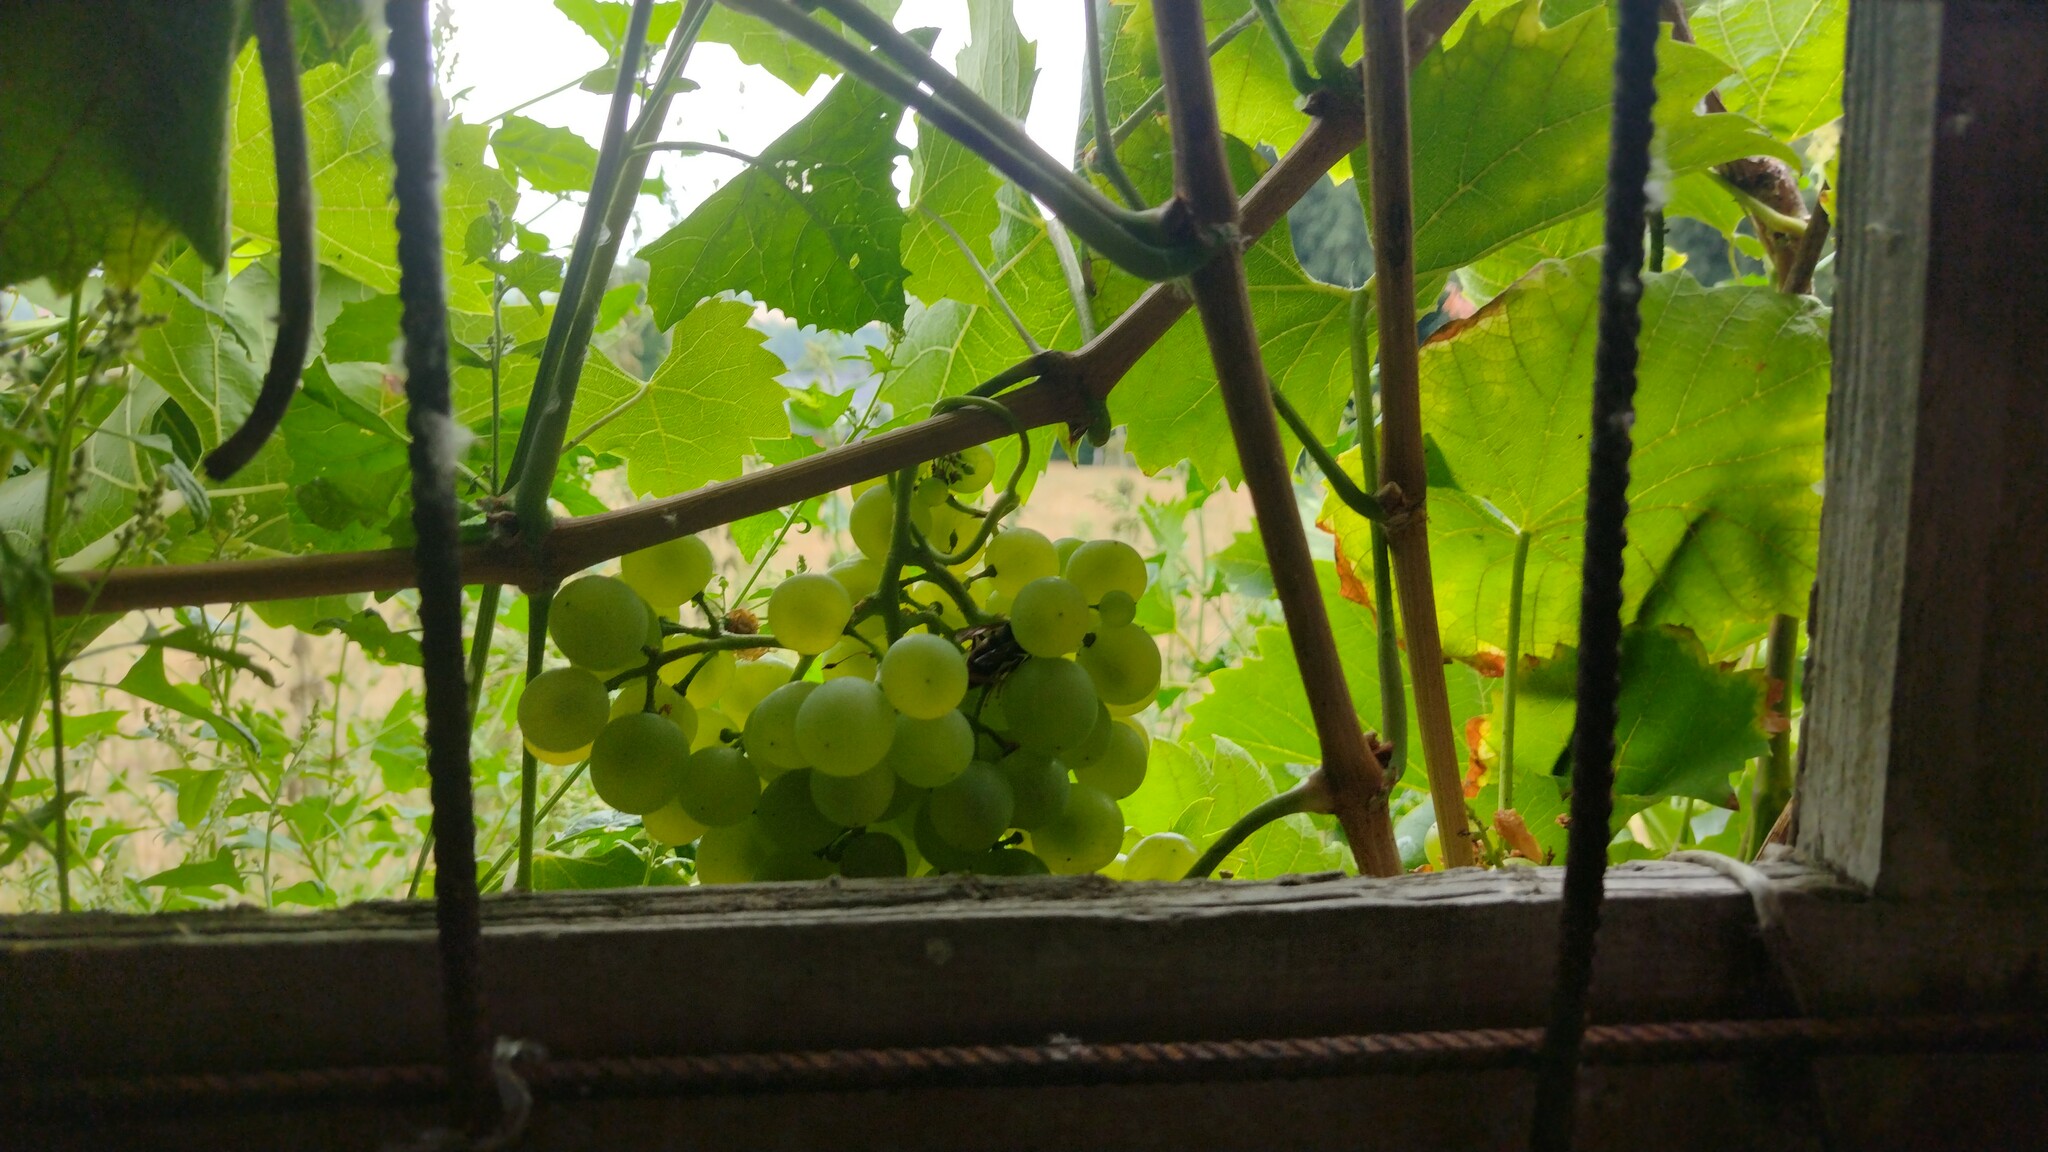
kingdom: Animalia
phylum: Arthropoda
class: Insecta
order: Hymenoptera
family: Vespidae
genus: Vespa
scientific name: Vespa velutina
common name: Asian hornet
